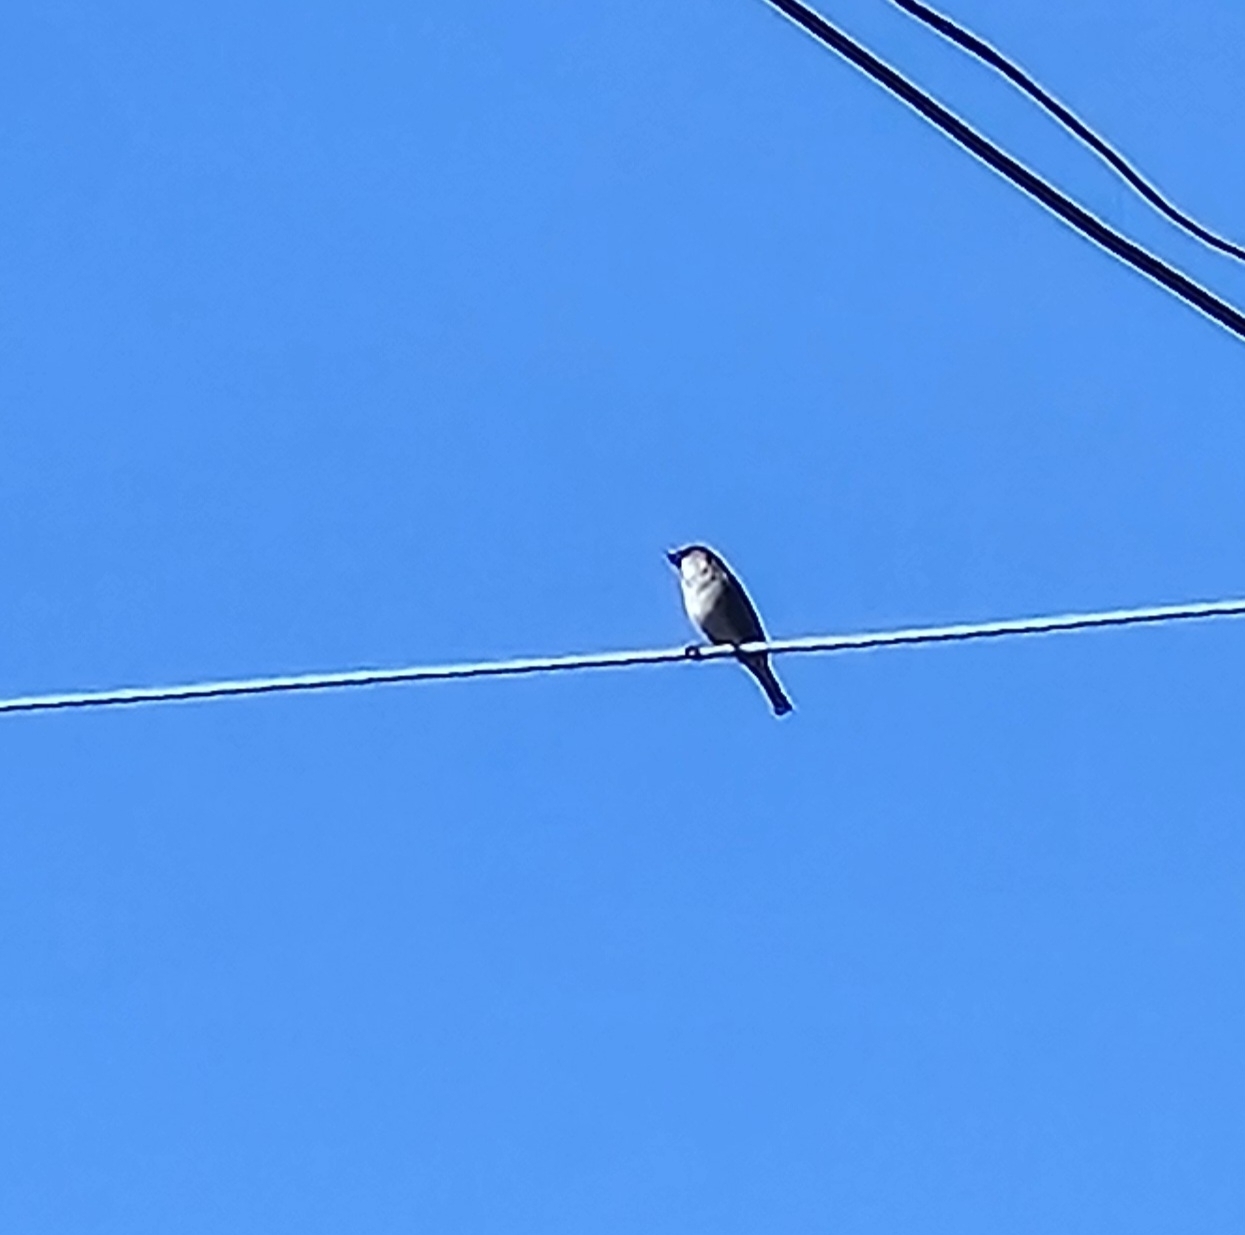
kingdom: Animalia
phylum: Chordata
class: Aves
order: Passeriformes
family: Passeridae
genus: Passer
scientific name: Passer domesticus
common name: House sparrow
